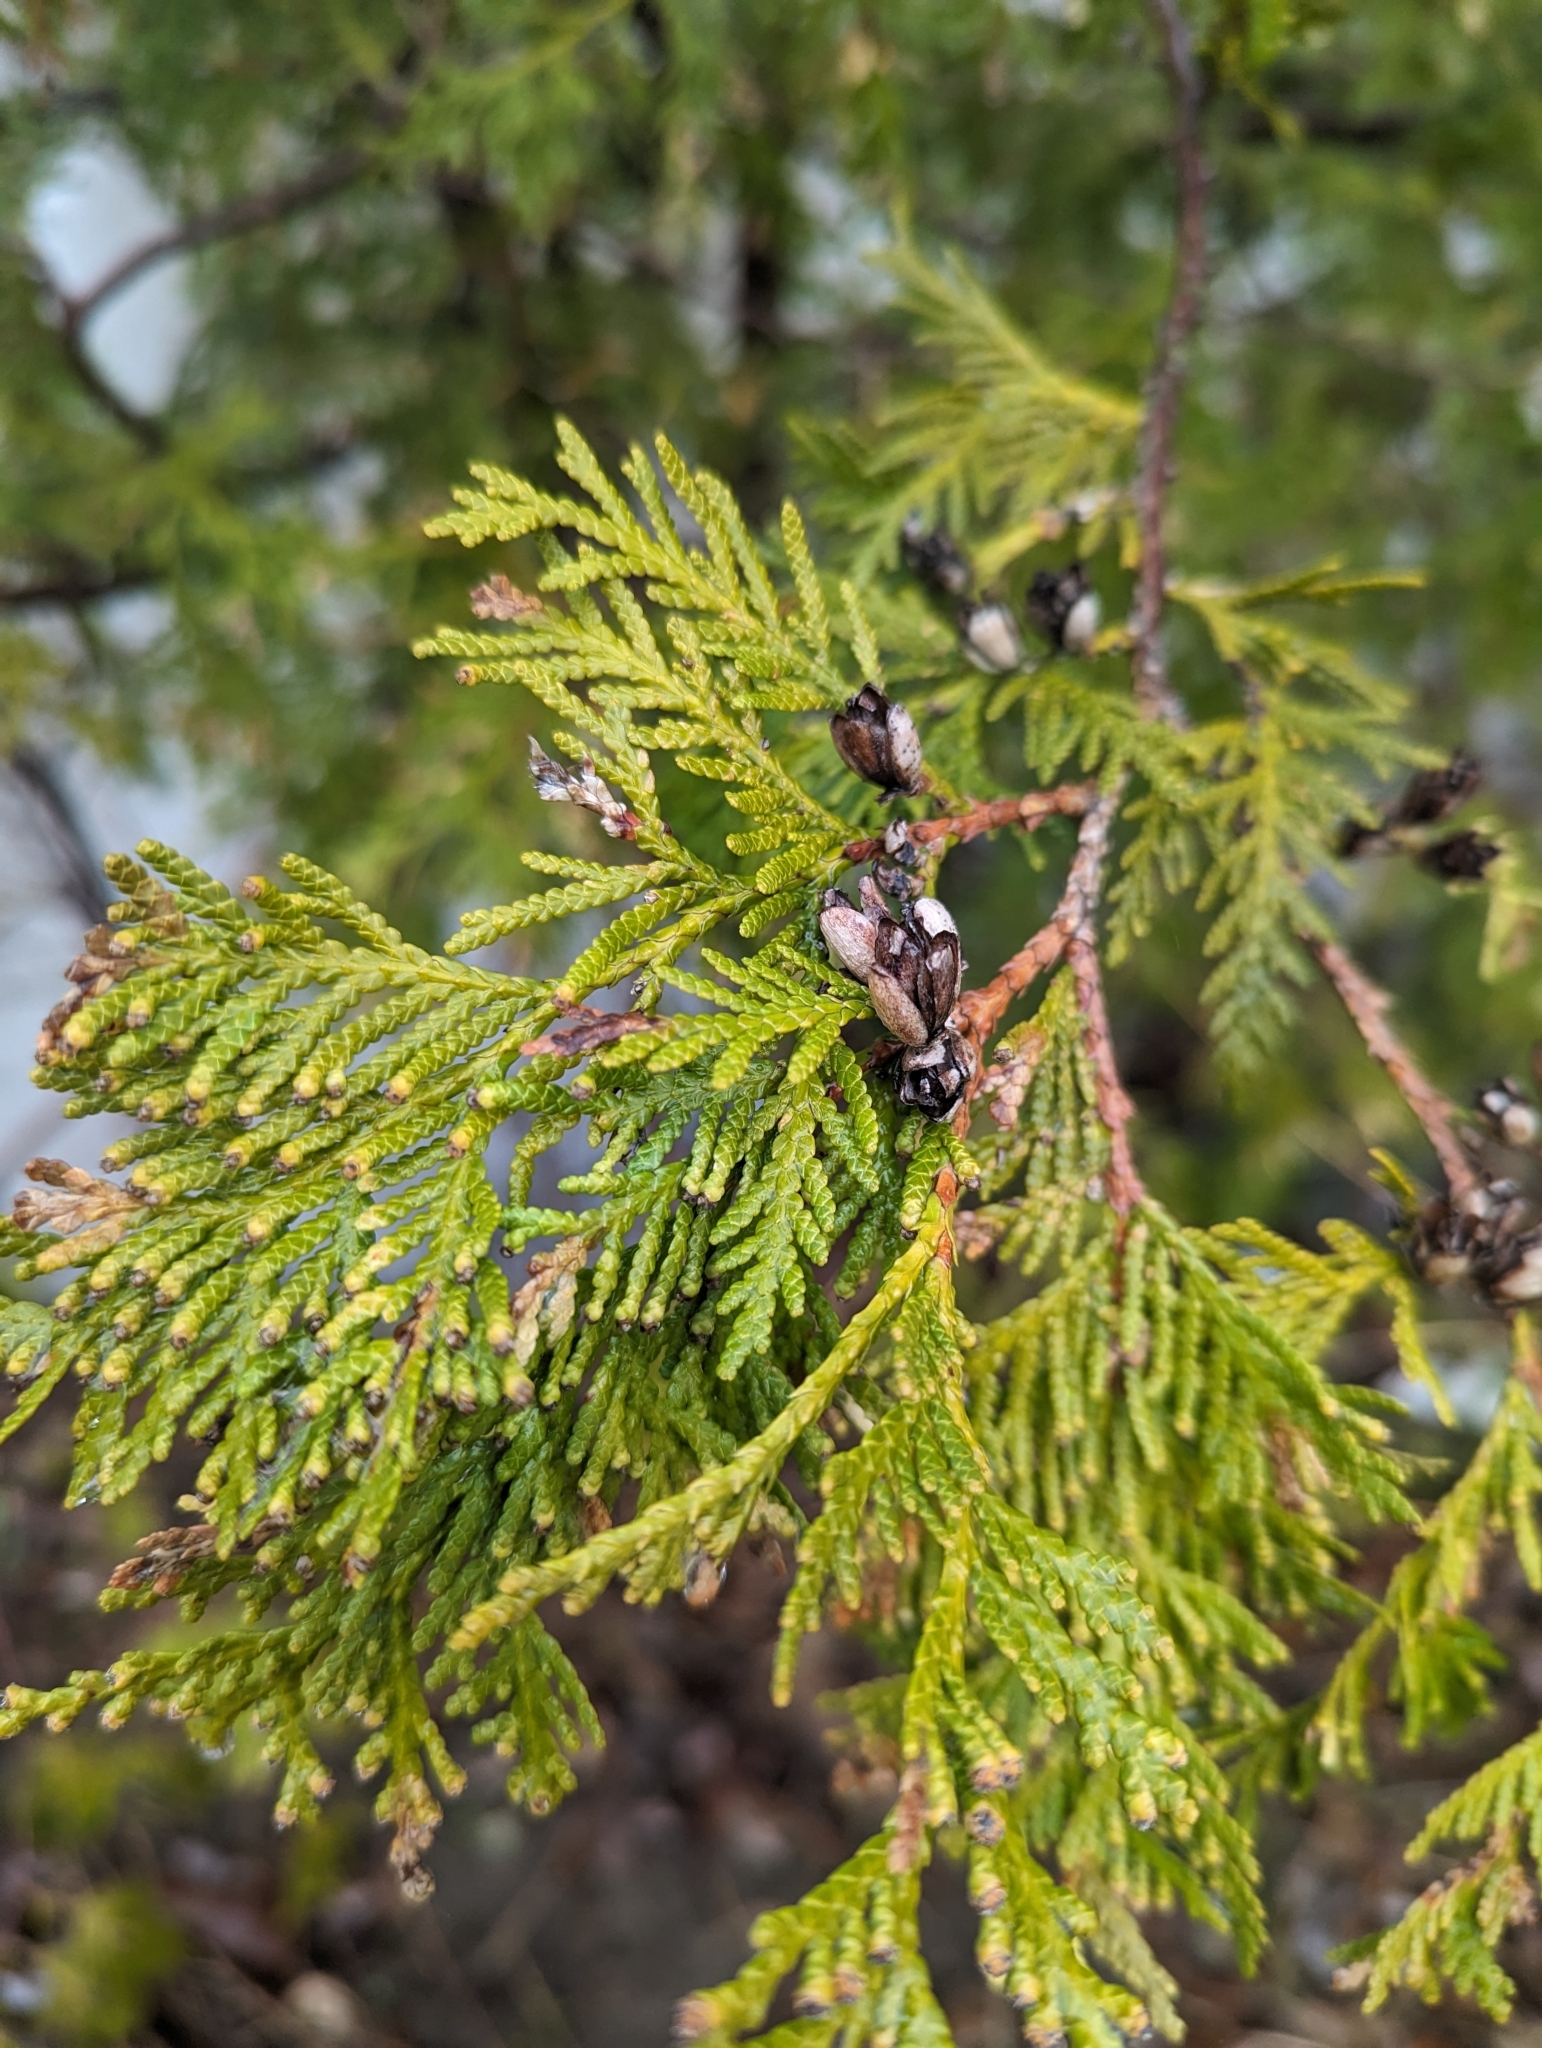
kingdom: Plantae
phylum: Tracheophyta
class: Pinopsida
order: Pinales
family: Cupressaceae
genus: Thuja
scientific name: Thuja occidentalis
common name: Northern white-cedar
